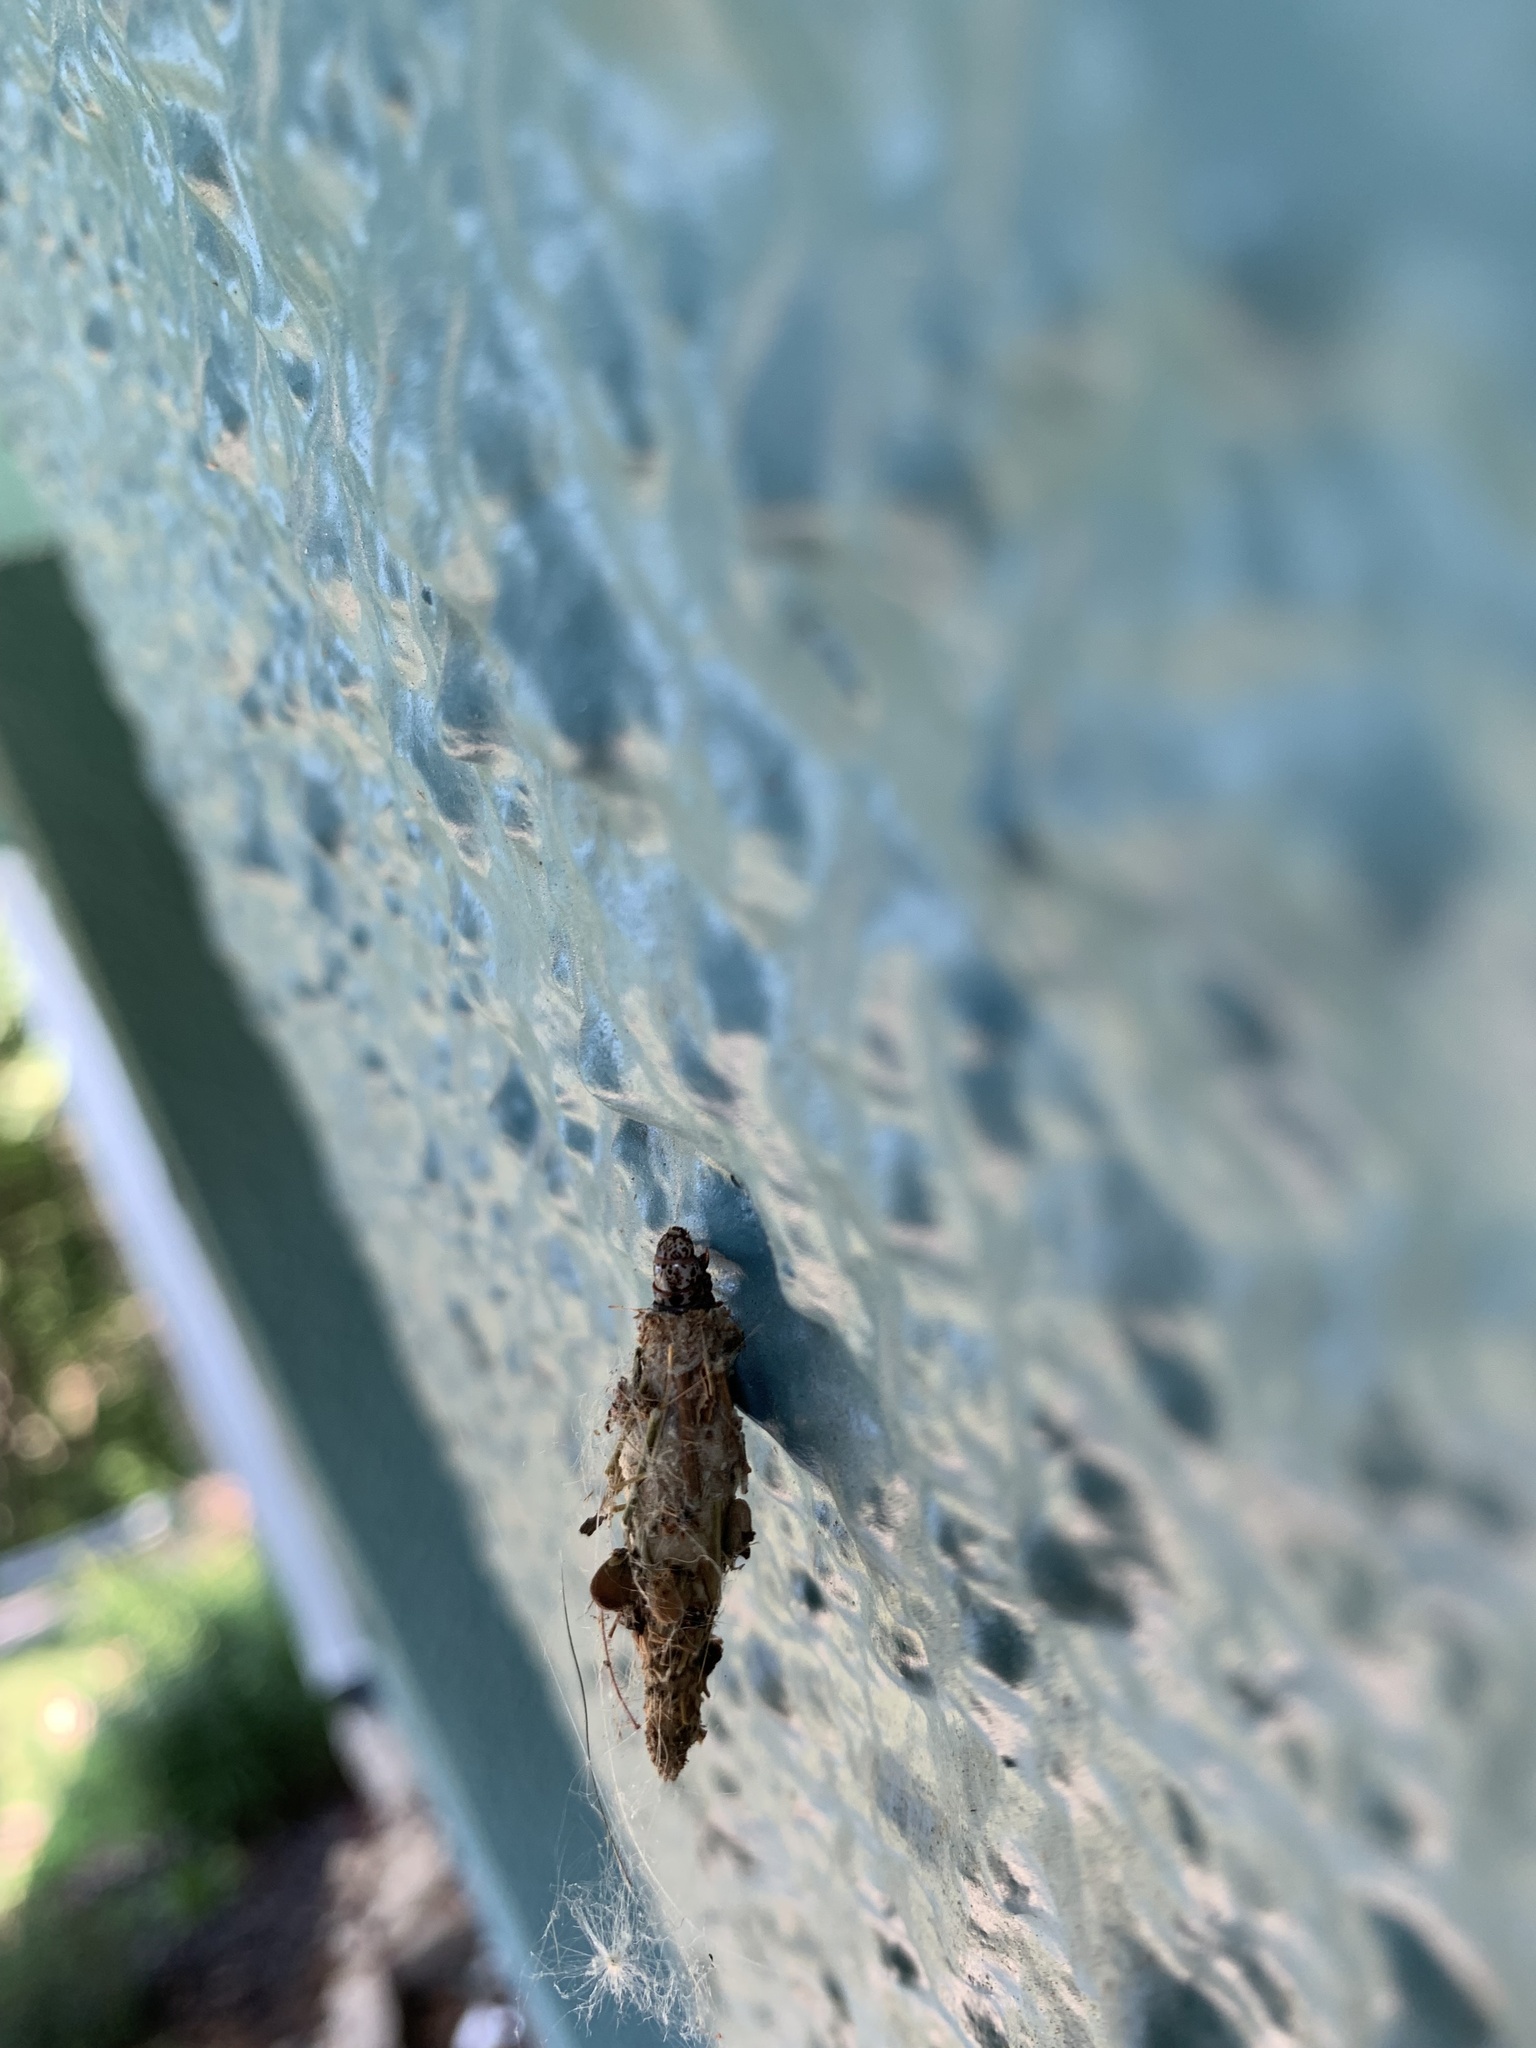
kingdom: Animalia
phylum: Arthropoda
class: Insecta
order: Lepidoptera
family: Psychidae
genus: Thyridopteryx
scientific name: Thyridopteryx ephemeraeformis
